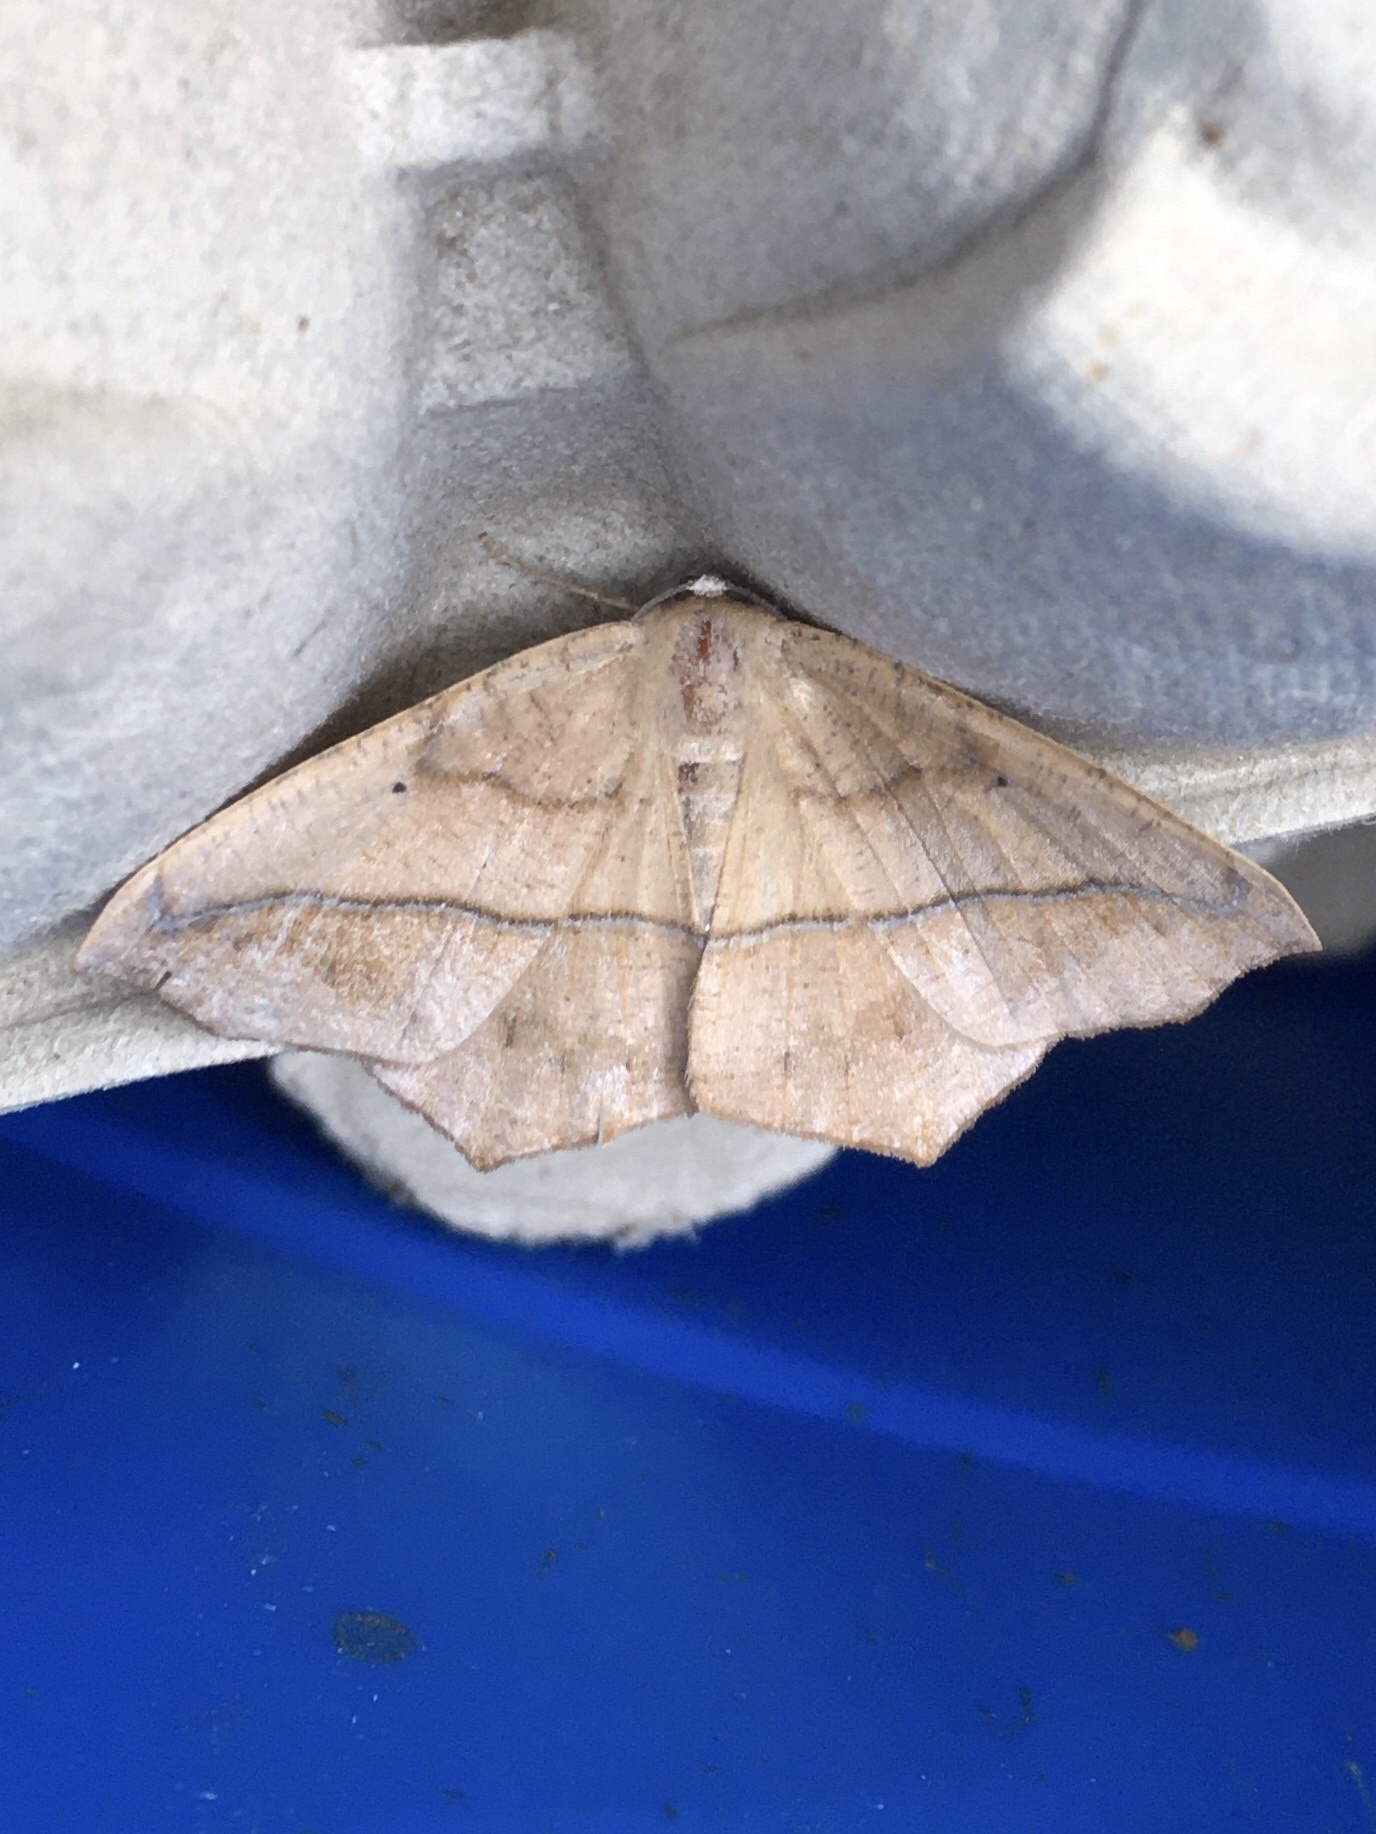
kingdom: Animalia
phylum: Arthropoda
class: Insecta
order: Lepidoptera
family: Geometridae
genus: Prochoerodes
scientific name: Prochoerodes lineola
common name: Large maple spanworm
